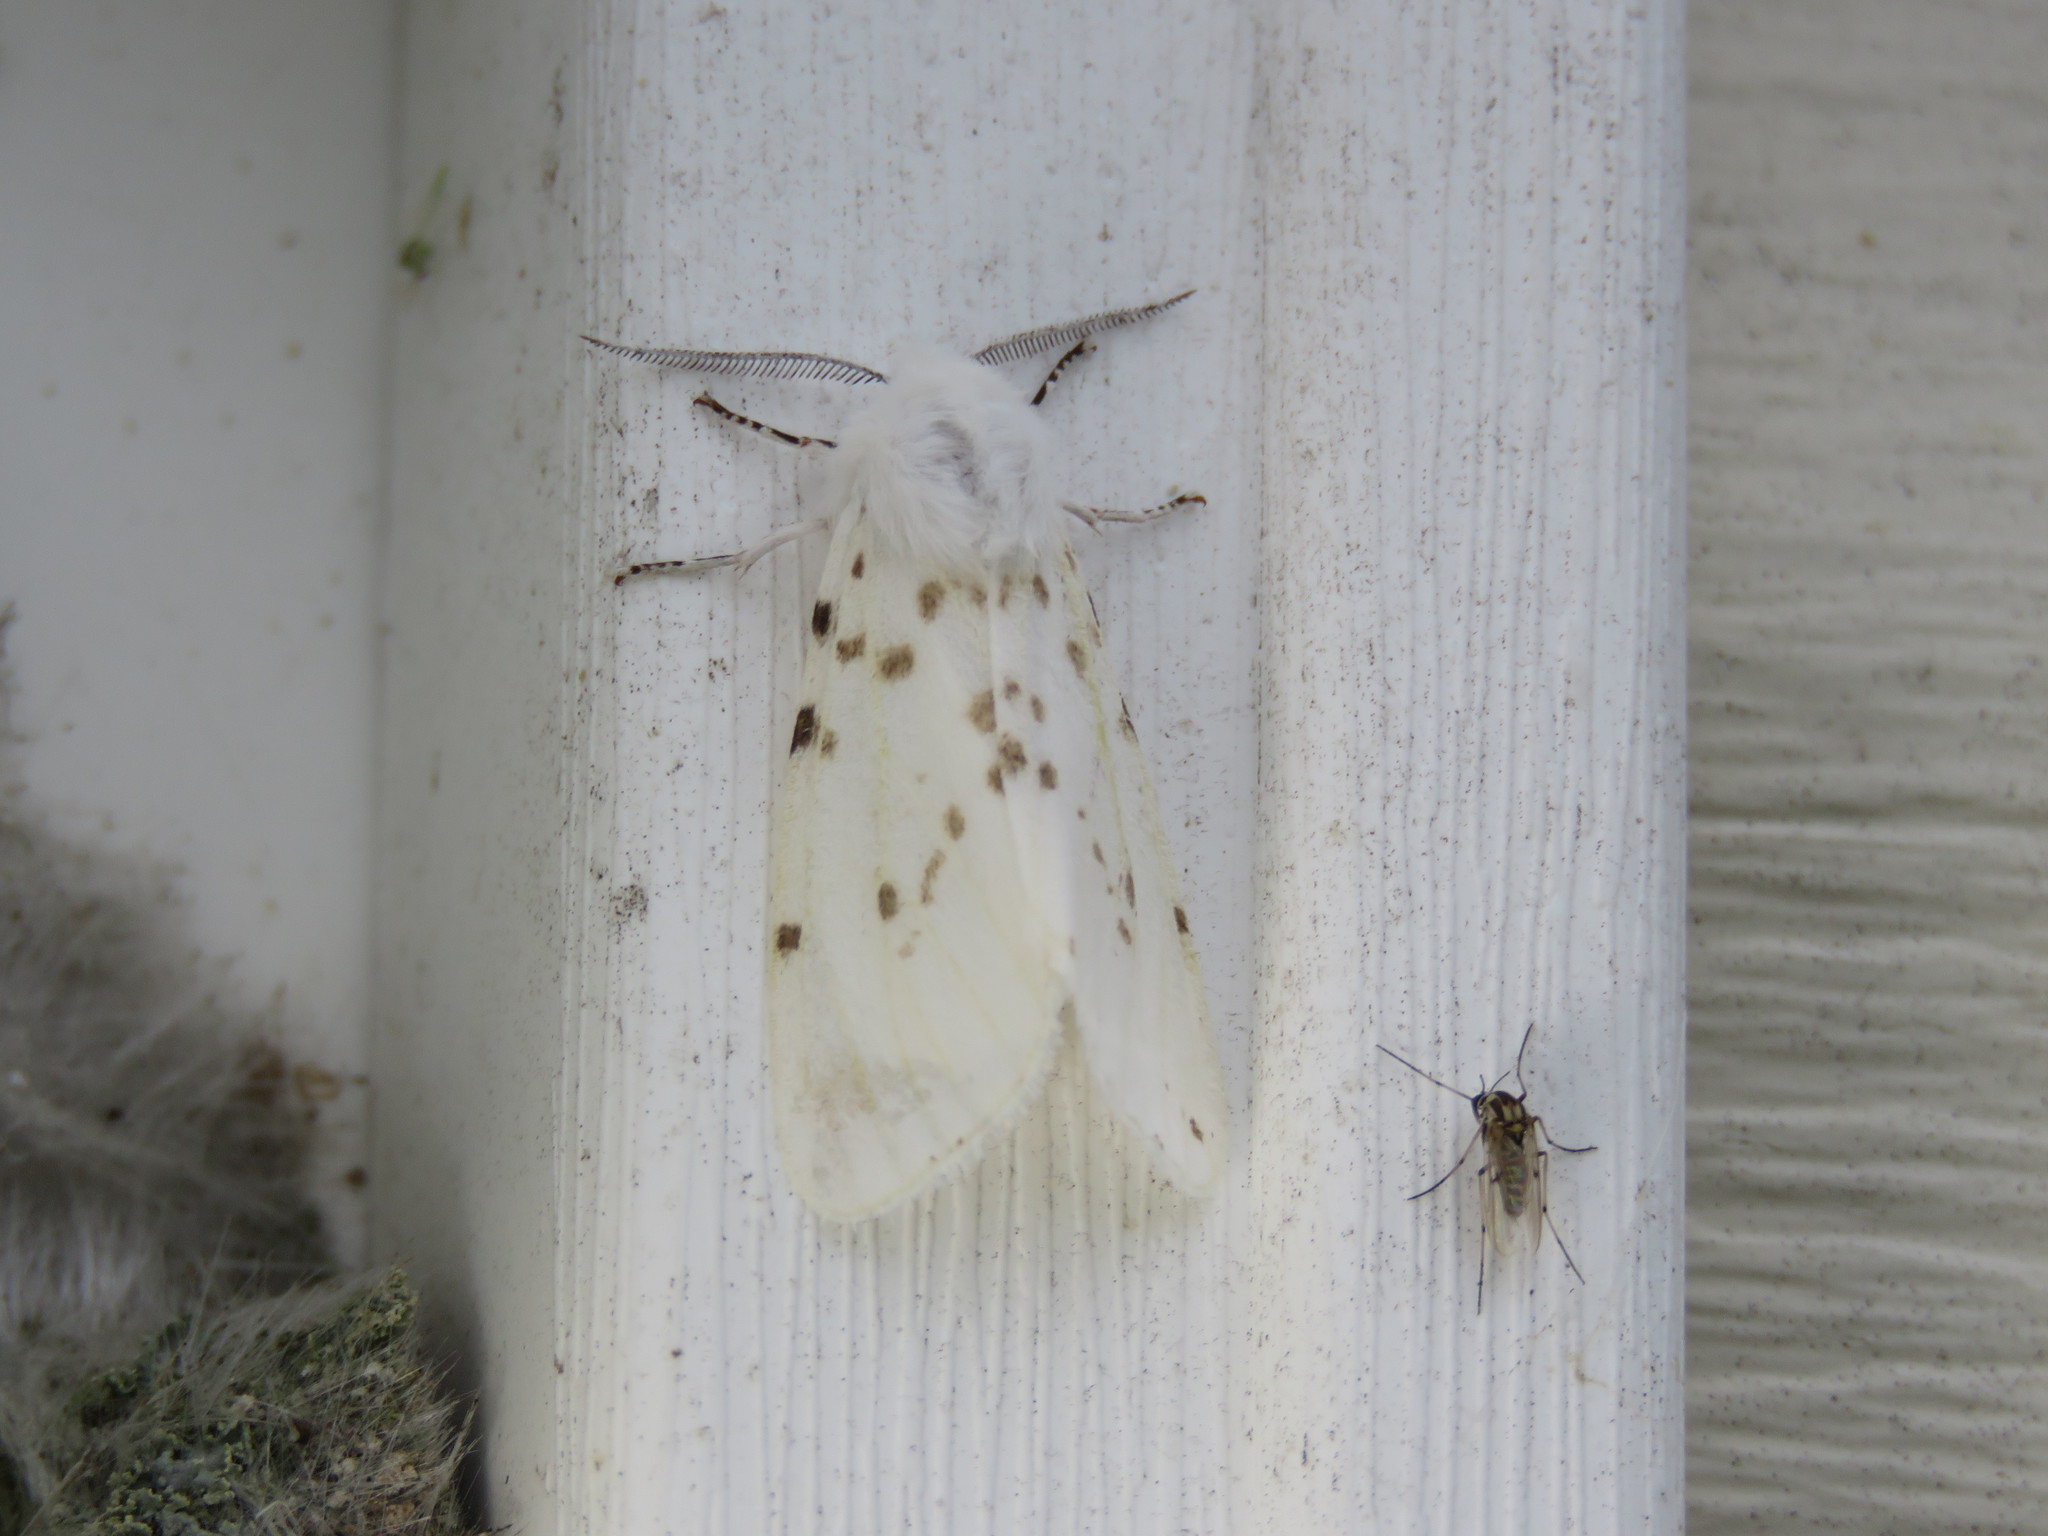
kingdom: Animalia
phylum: Arthropoda
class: Insecta
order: Lepidoptera
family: Erebidae
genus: Hyphantria
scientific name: Hyphantria cunea
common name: American white moth
